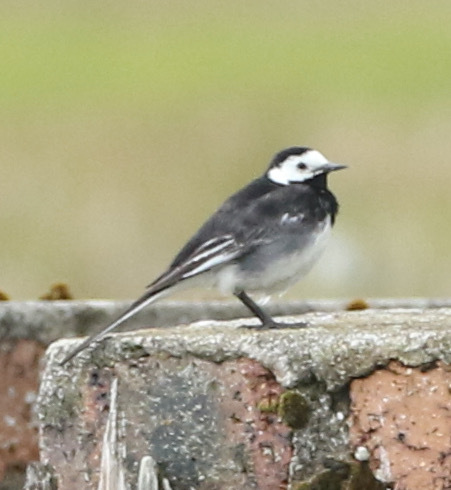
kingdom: Animalia
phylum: Chordata
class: Aves
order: Passeriformes
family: Motacillidae
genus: Motacilla
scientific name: Motacilla alba
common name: White wagtail
